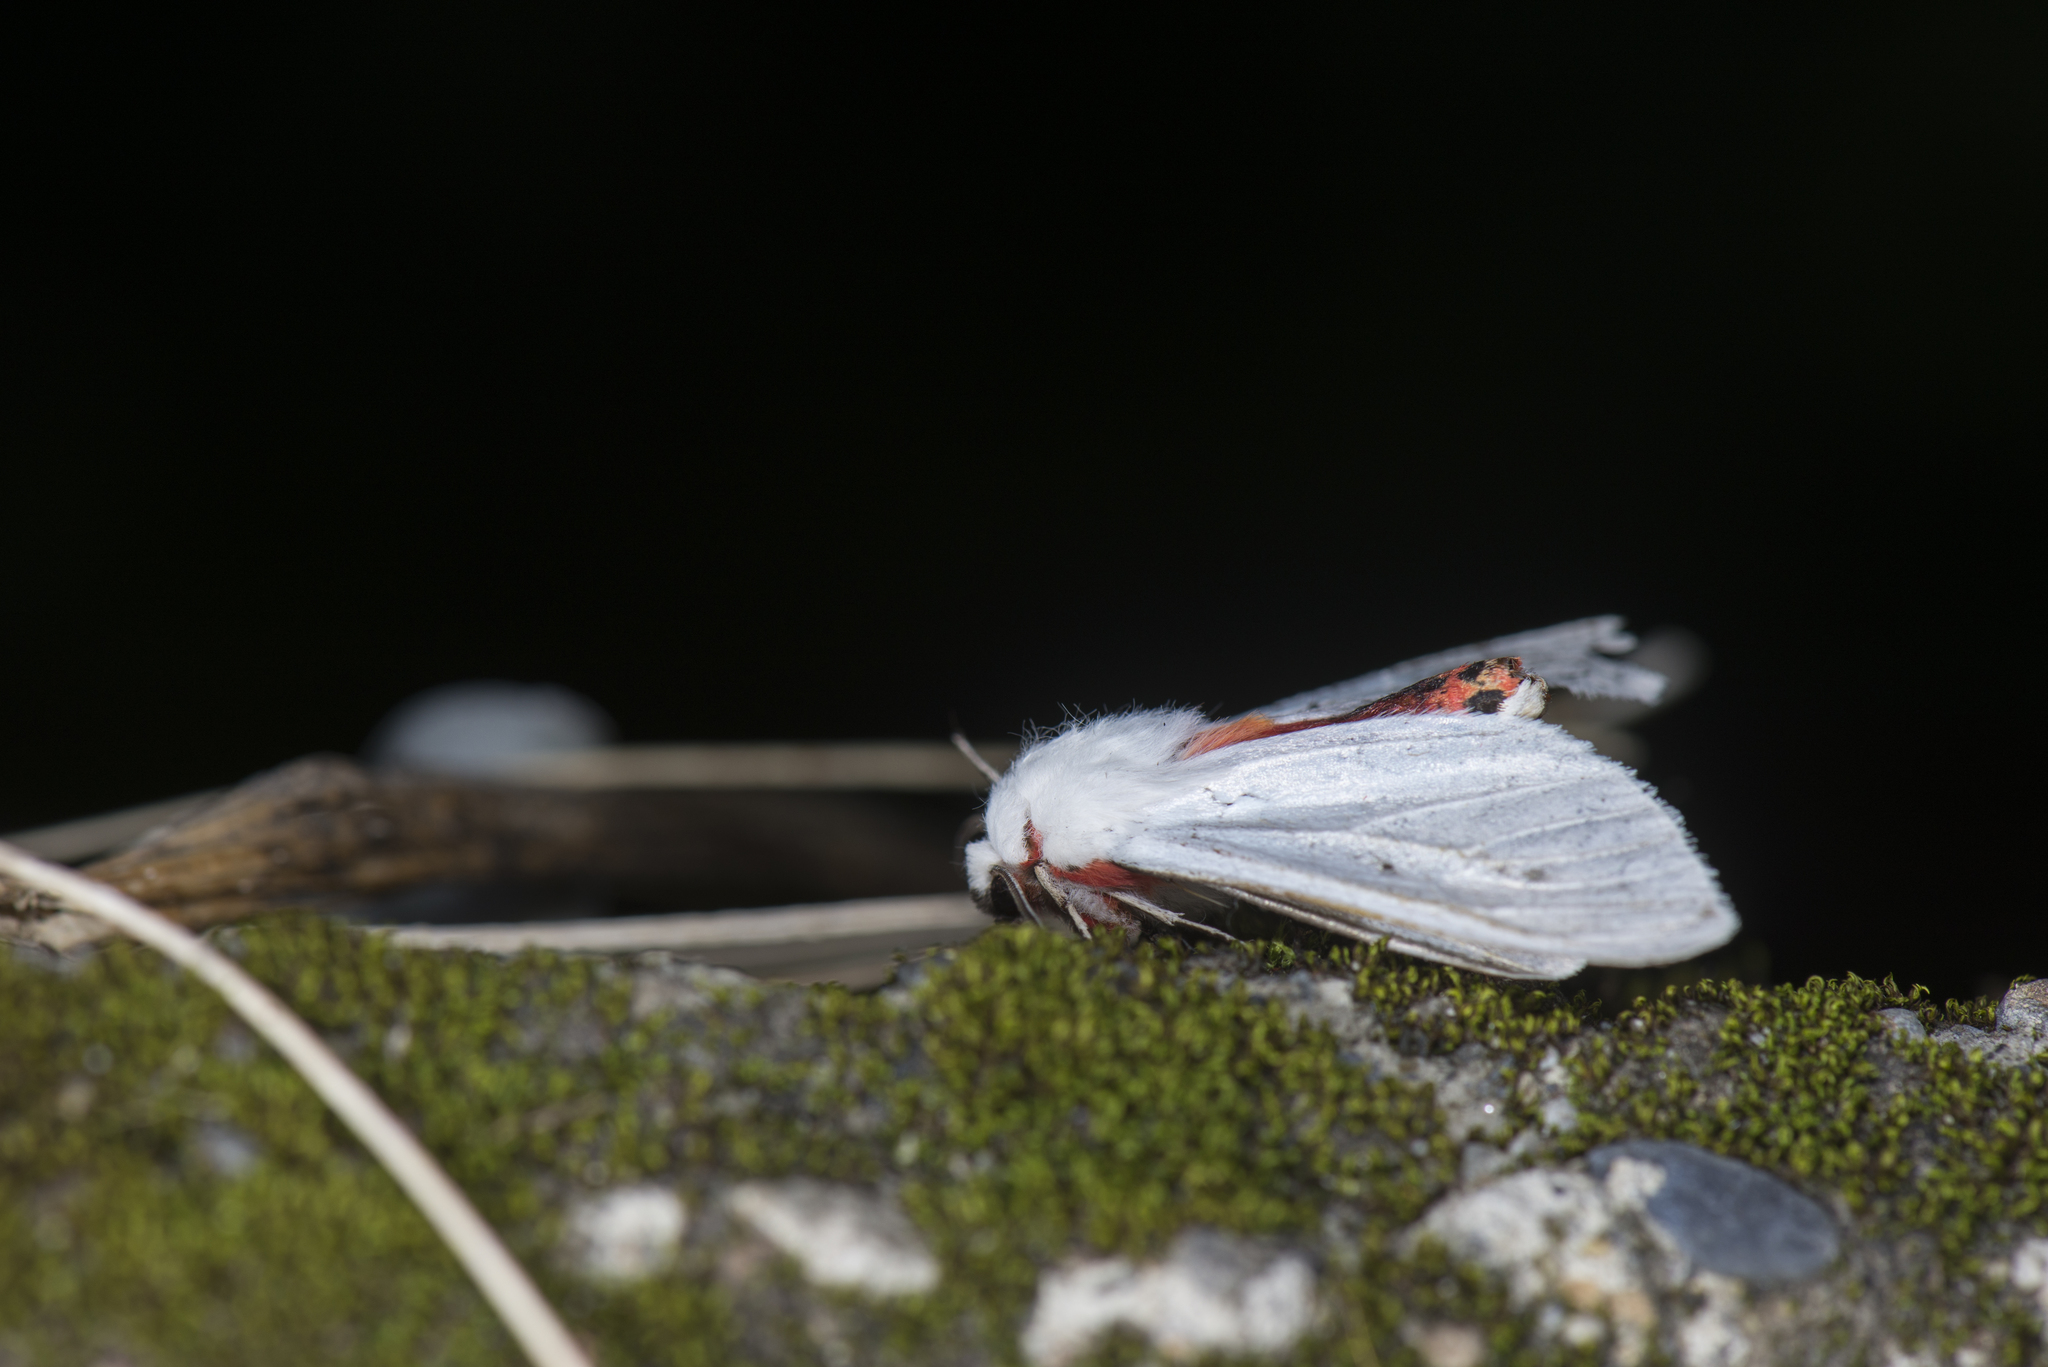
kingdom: Animalia
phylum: Arthropoda
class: Insecta
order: Lepidoptera
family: Erebidae
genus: Argyractia
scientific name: Argyractia fuscobasalis
